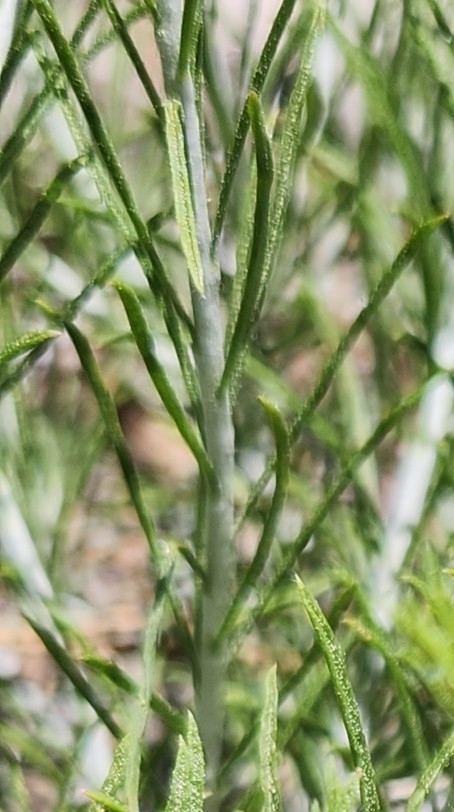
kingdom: Plantae
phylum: Tracheophyta
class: Magnoliopsida
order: Asterales
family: Asteraceae
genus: Ericameria
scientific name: Ericameria nauseosa
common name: Rubber rabbitbrush
